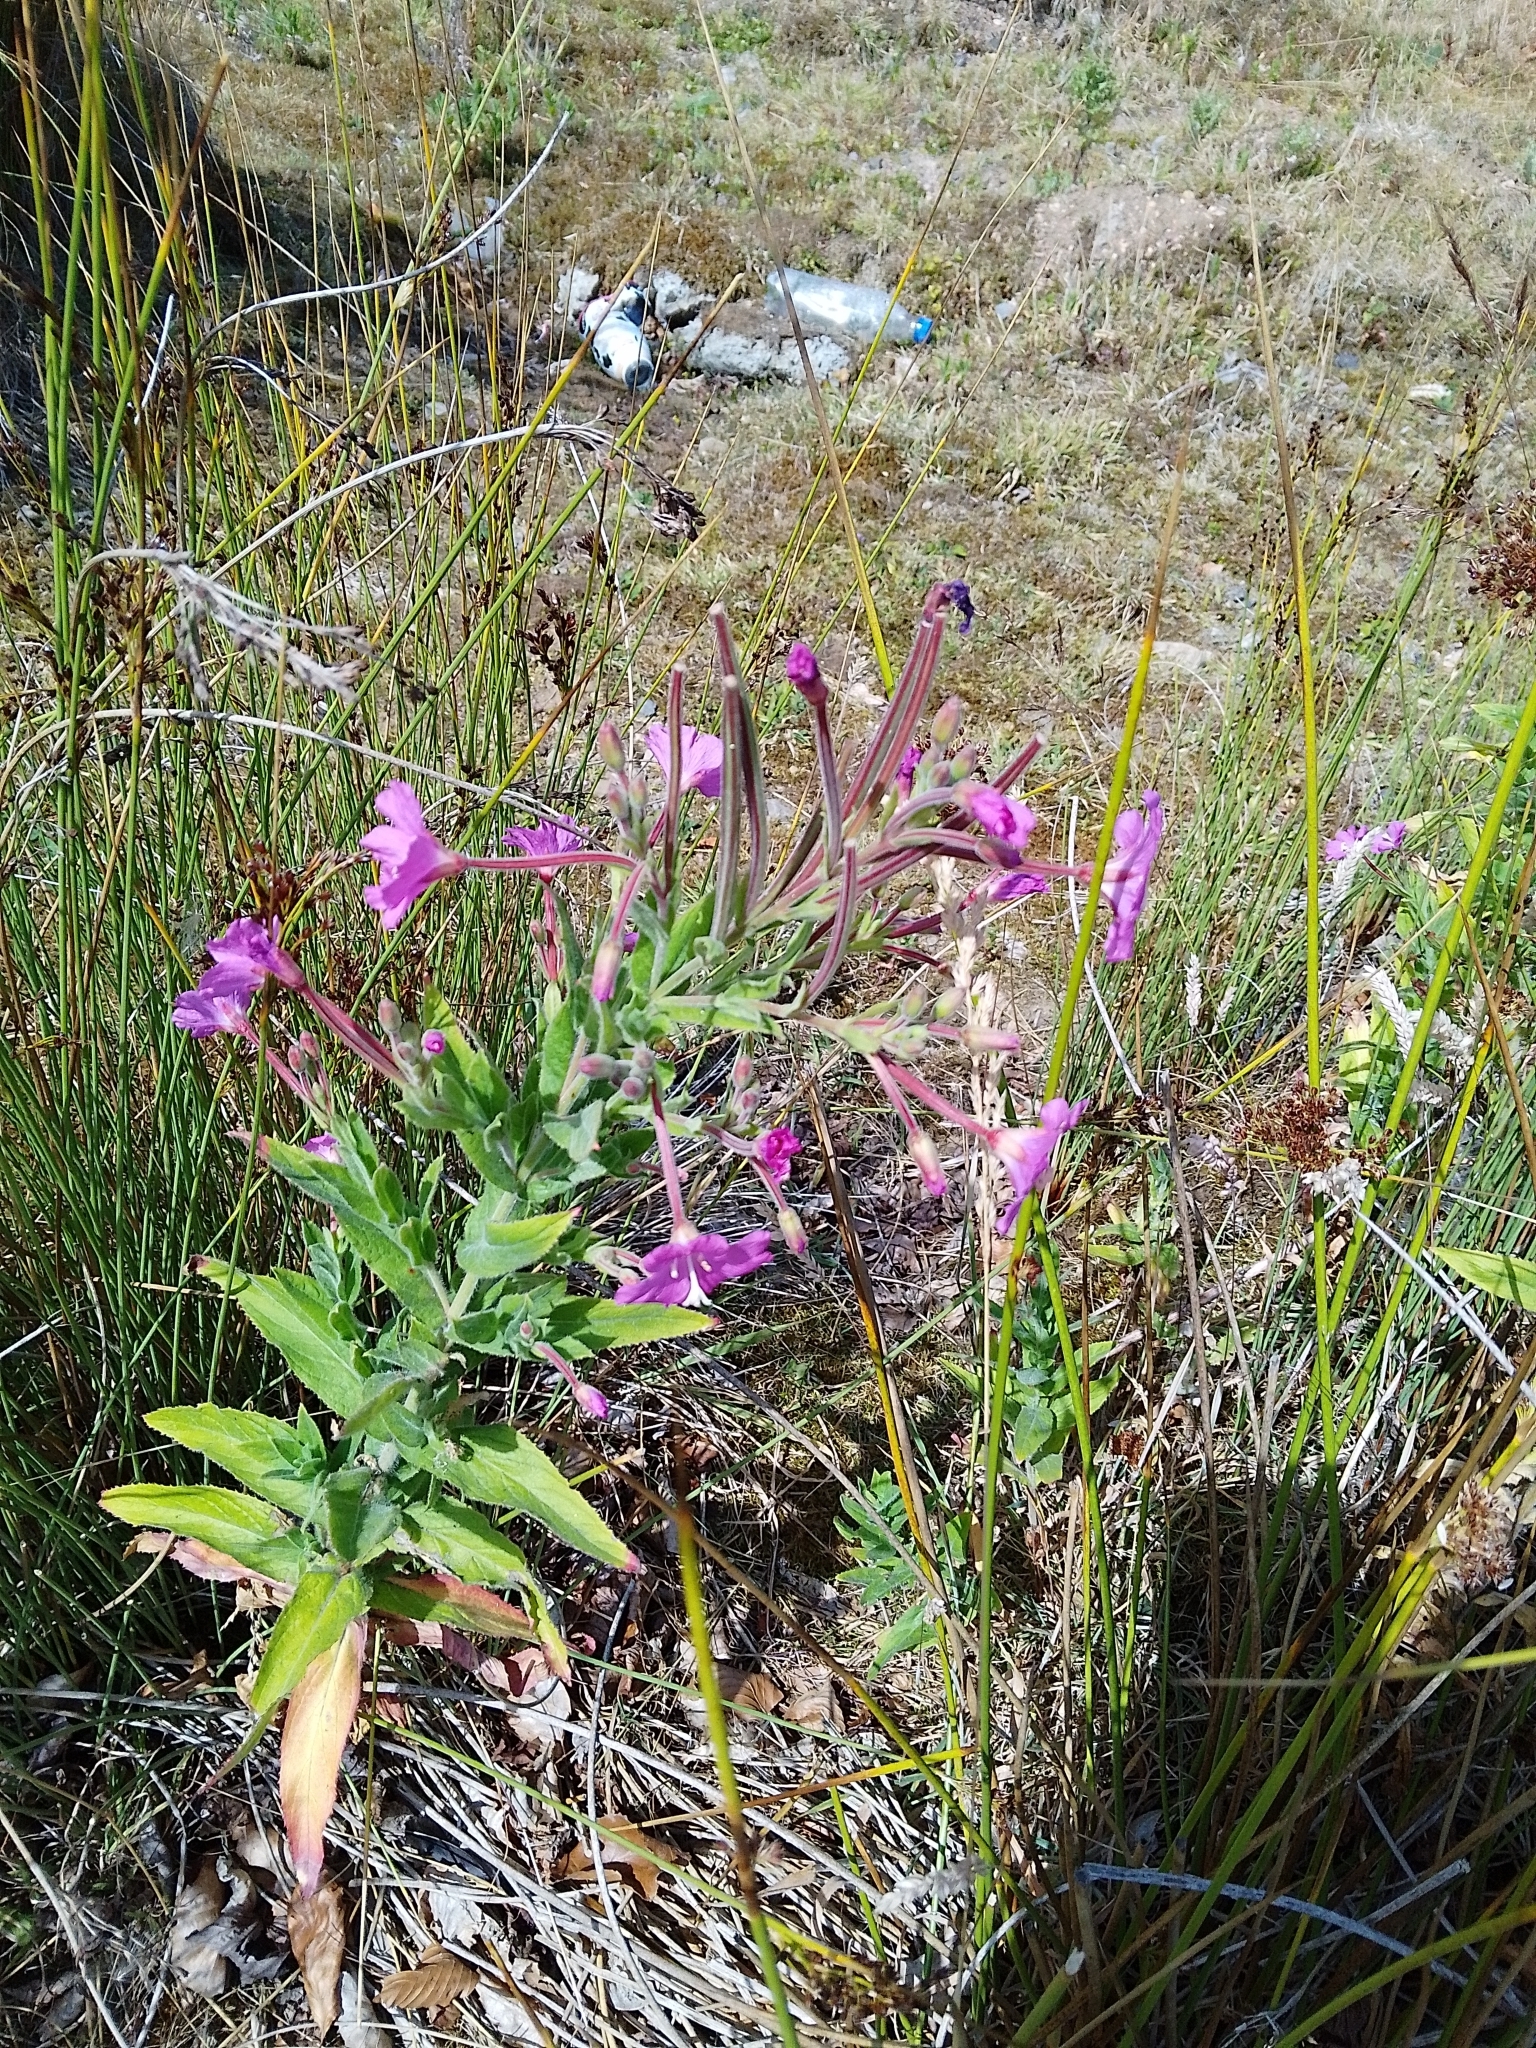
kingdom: Plantae
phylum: Tracheophyta
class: Magnoliopsida
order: Myrtales
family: Onagraceae
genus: Epilobium
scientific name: Epilobium hirsutum
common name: Great willowherb
